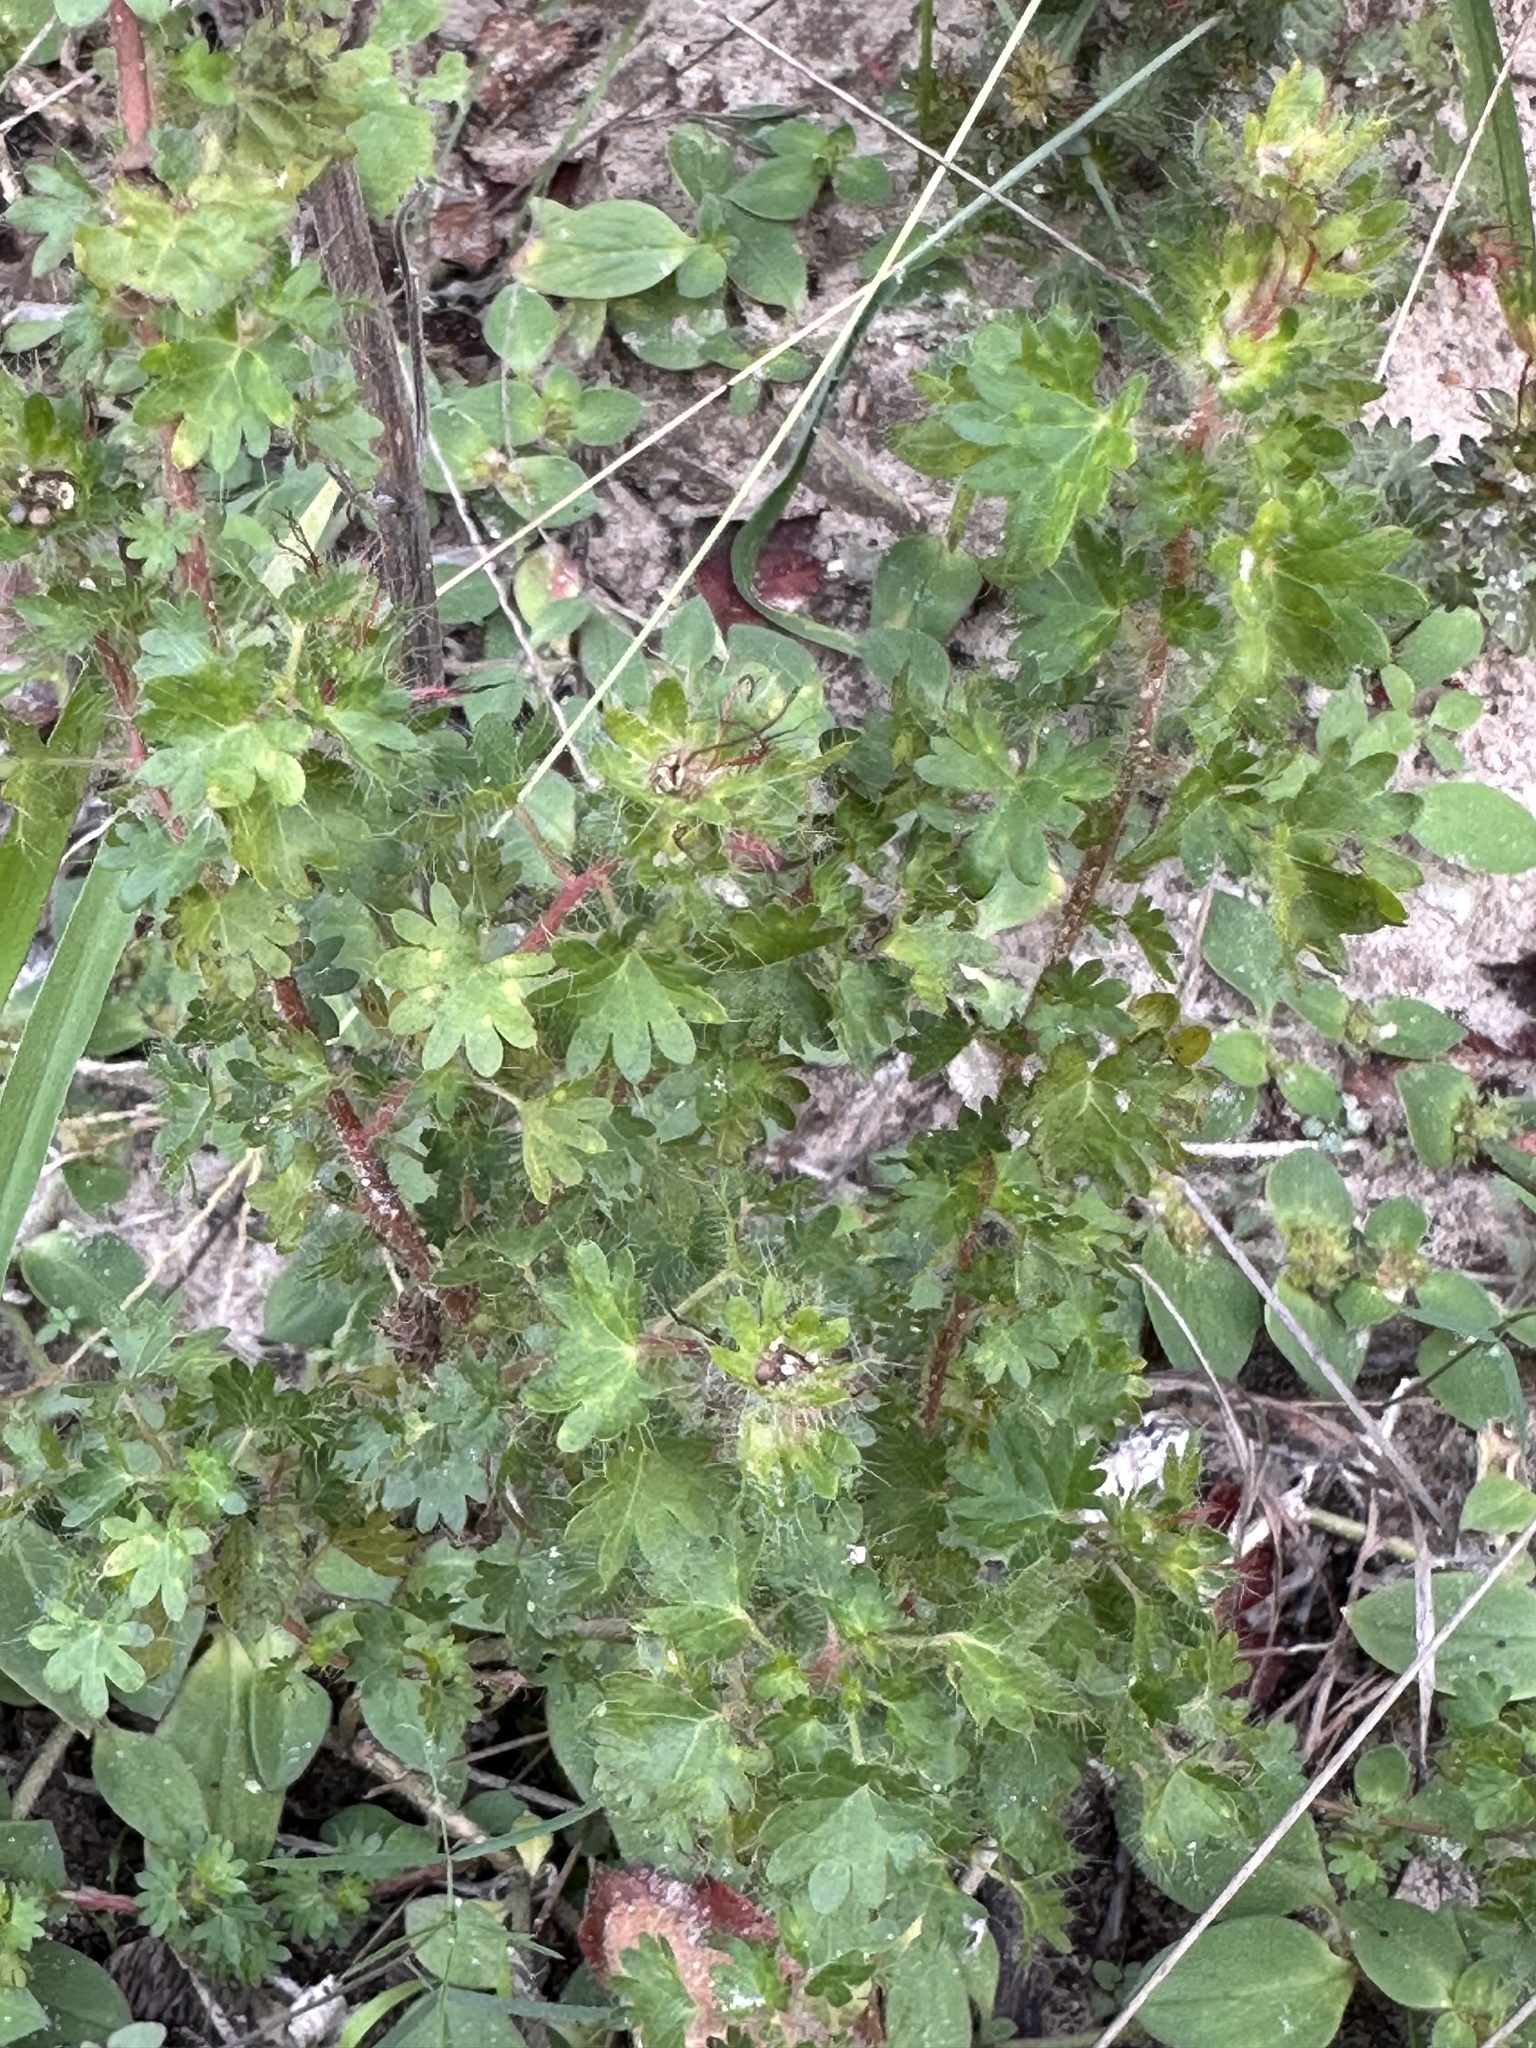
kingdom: Plantae
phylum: Tracheophyta
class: Magnoliopsida
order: Malpighiales
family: Euphorbiaceae
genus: Acalypha
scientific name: Acalypha radians
